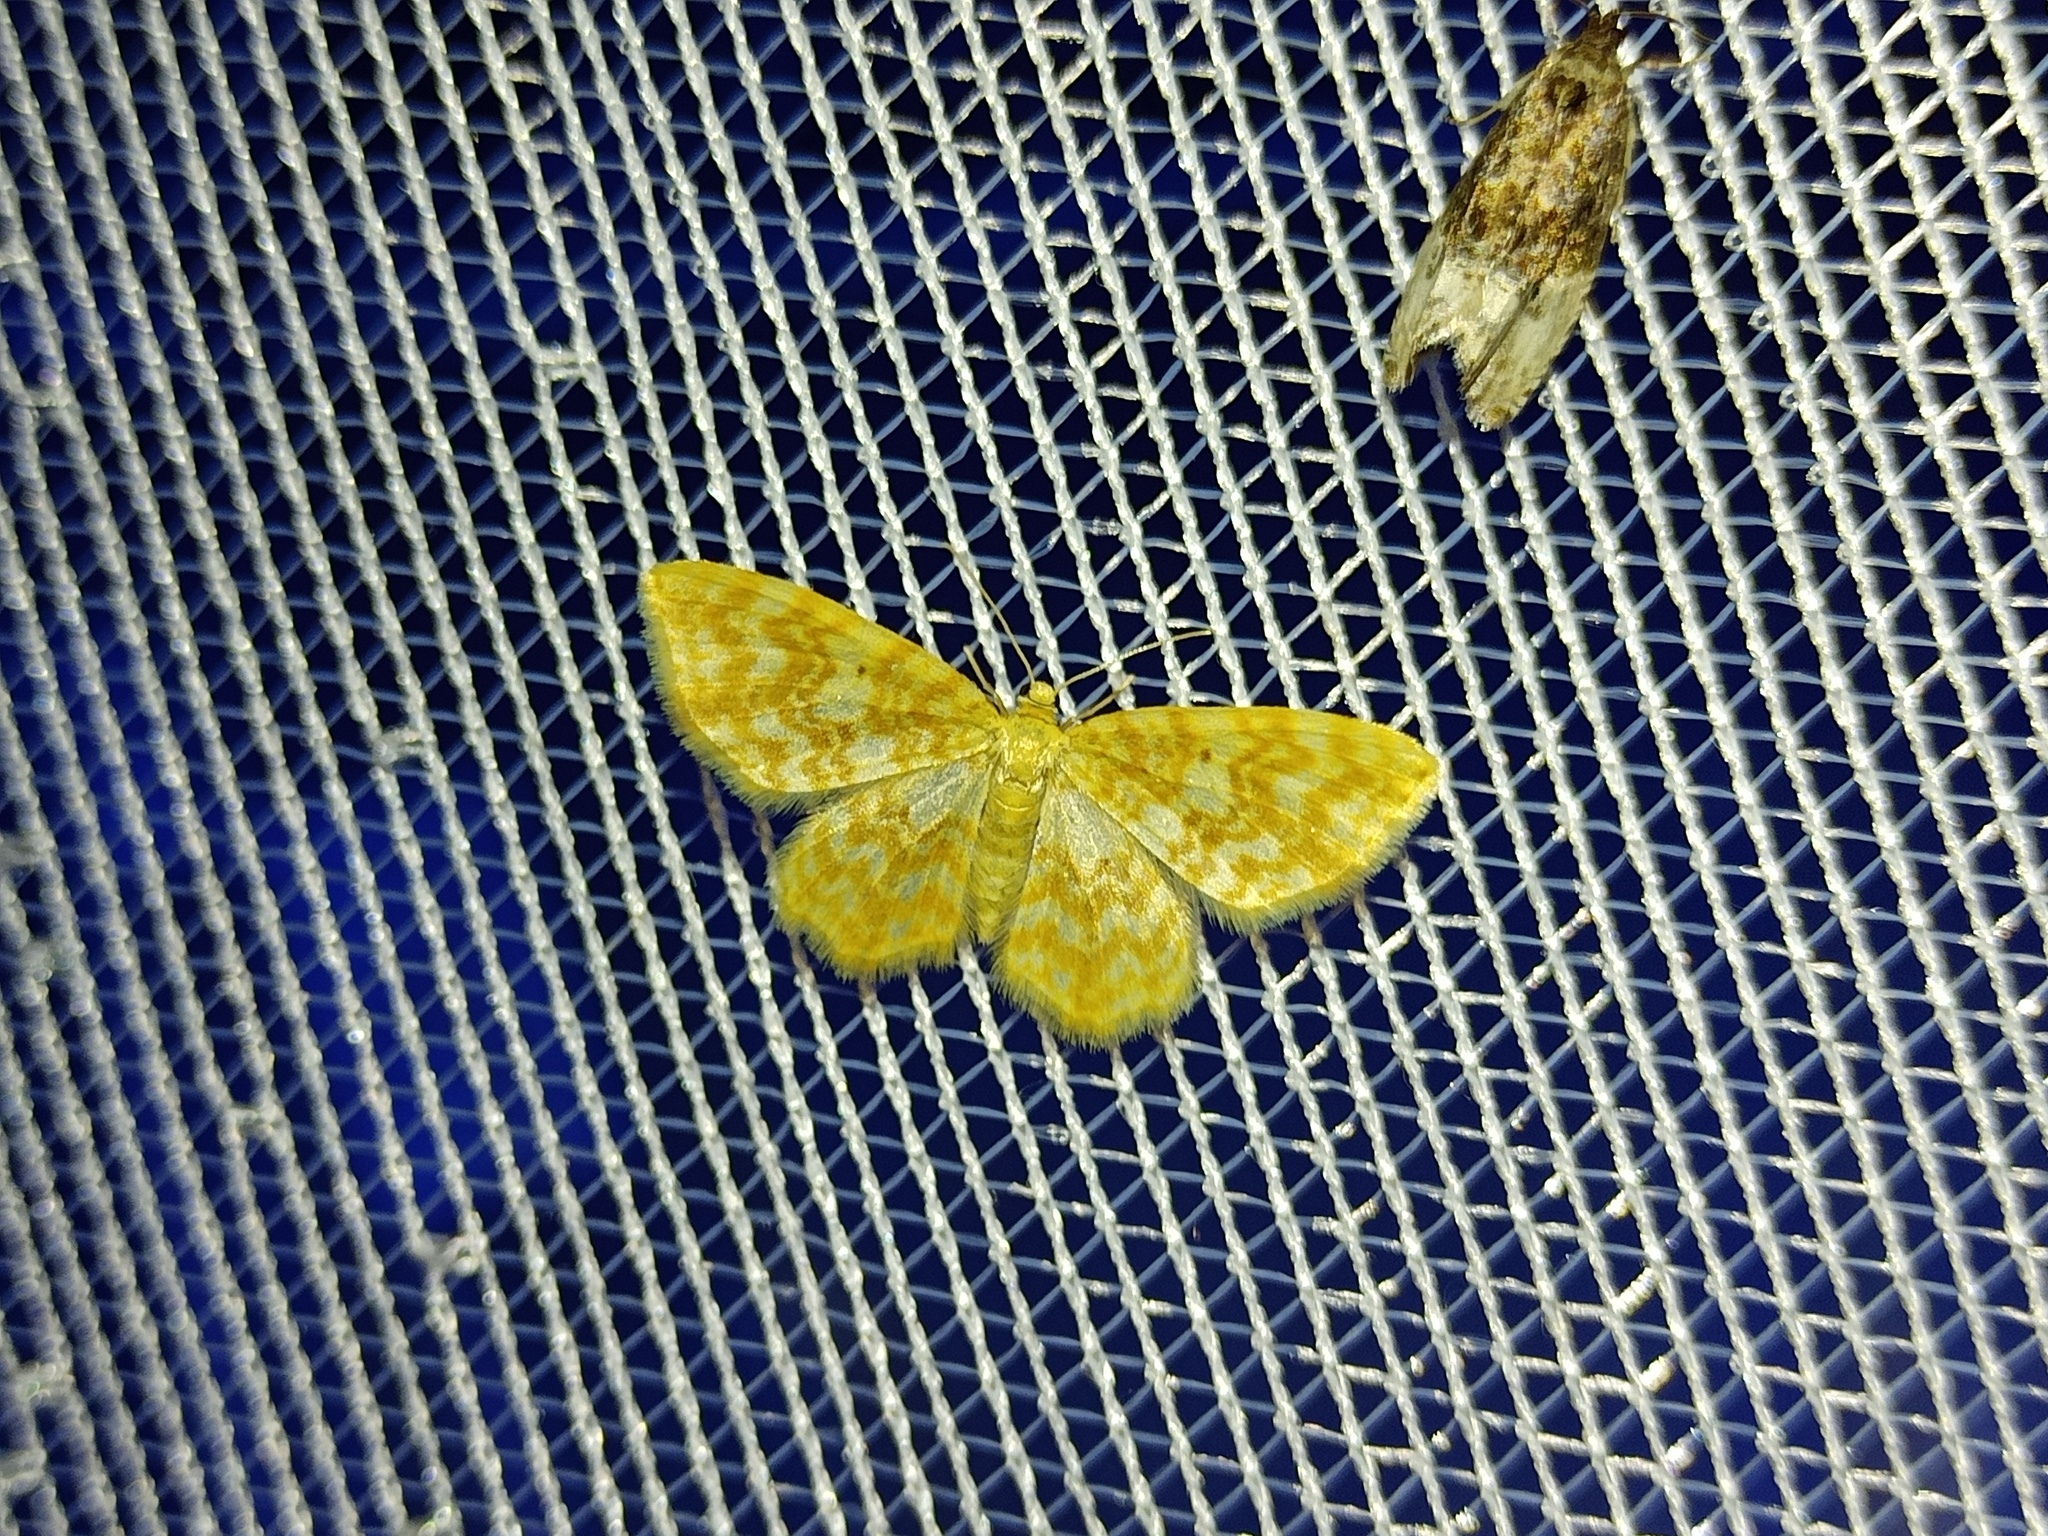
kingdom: Animalia
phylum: Arthropoda
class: Insecta
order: Lepidoptera
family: Geometridae
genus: Hydrelia
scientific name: Hydrelia flammeolaria
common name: Small yellow wave
